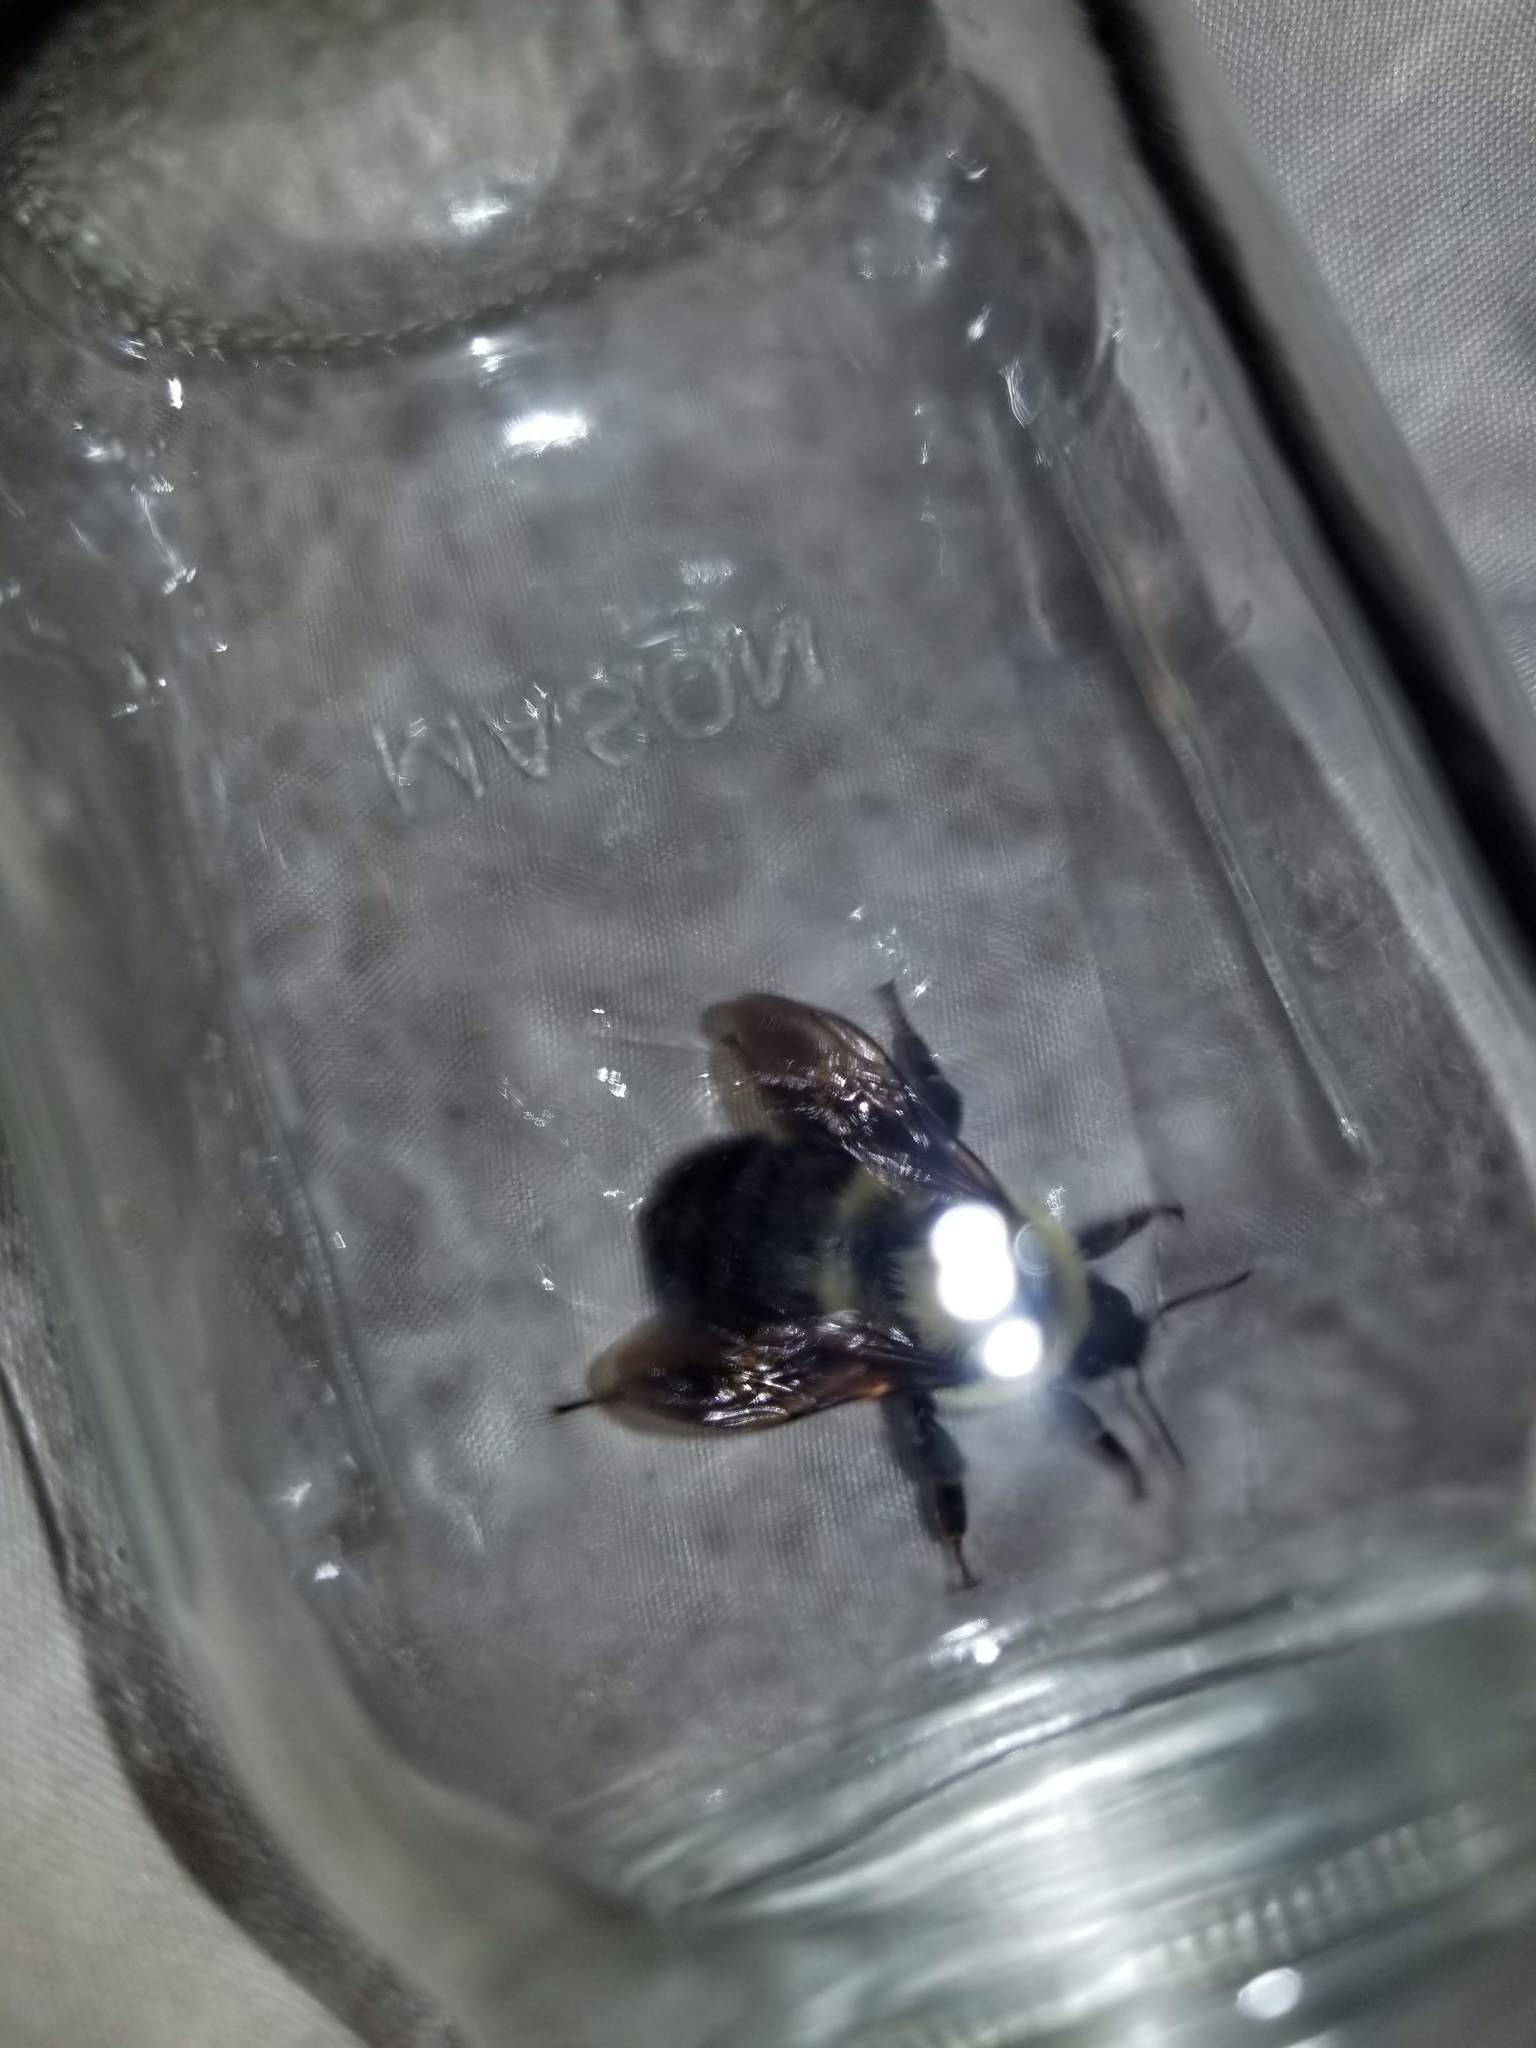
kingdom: Animalia
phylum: Arthropoda
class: Insecta
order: Hymenoptera
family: Apidae
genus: Bombus
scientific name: Bombus bimaculatus
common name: Two-spotted bumble bee
